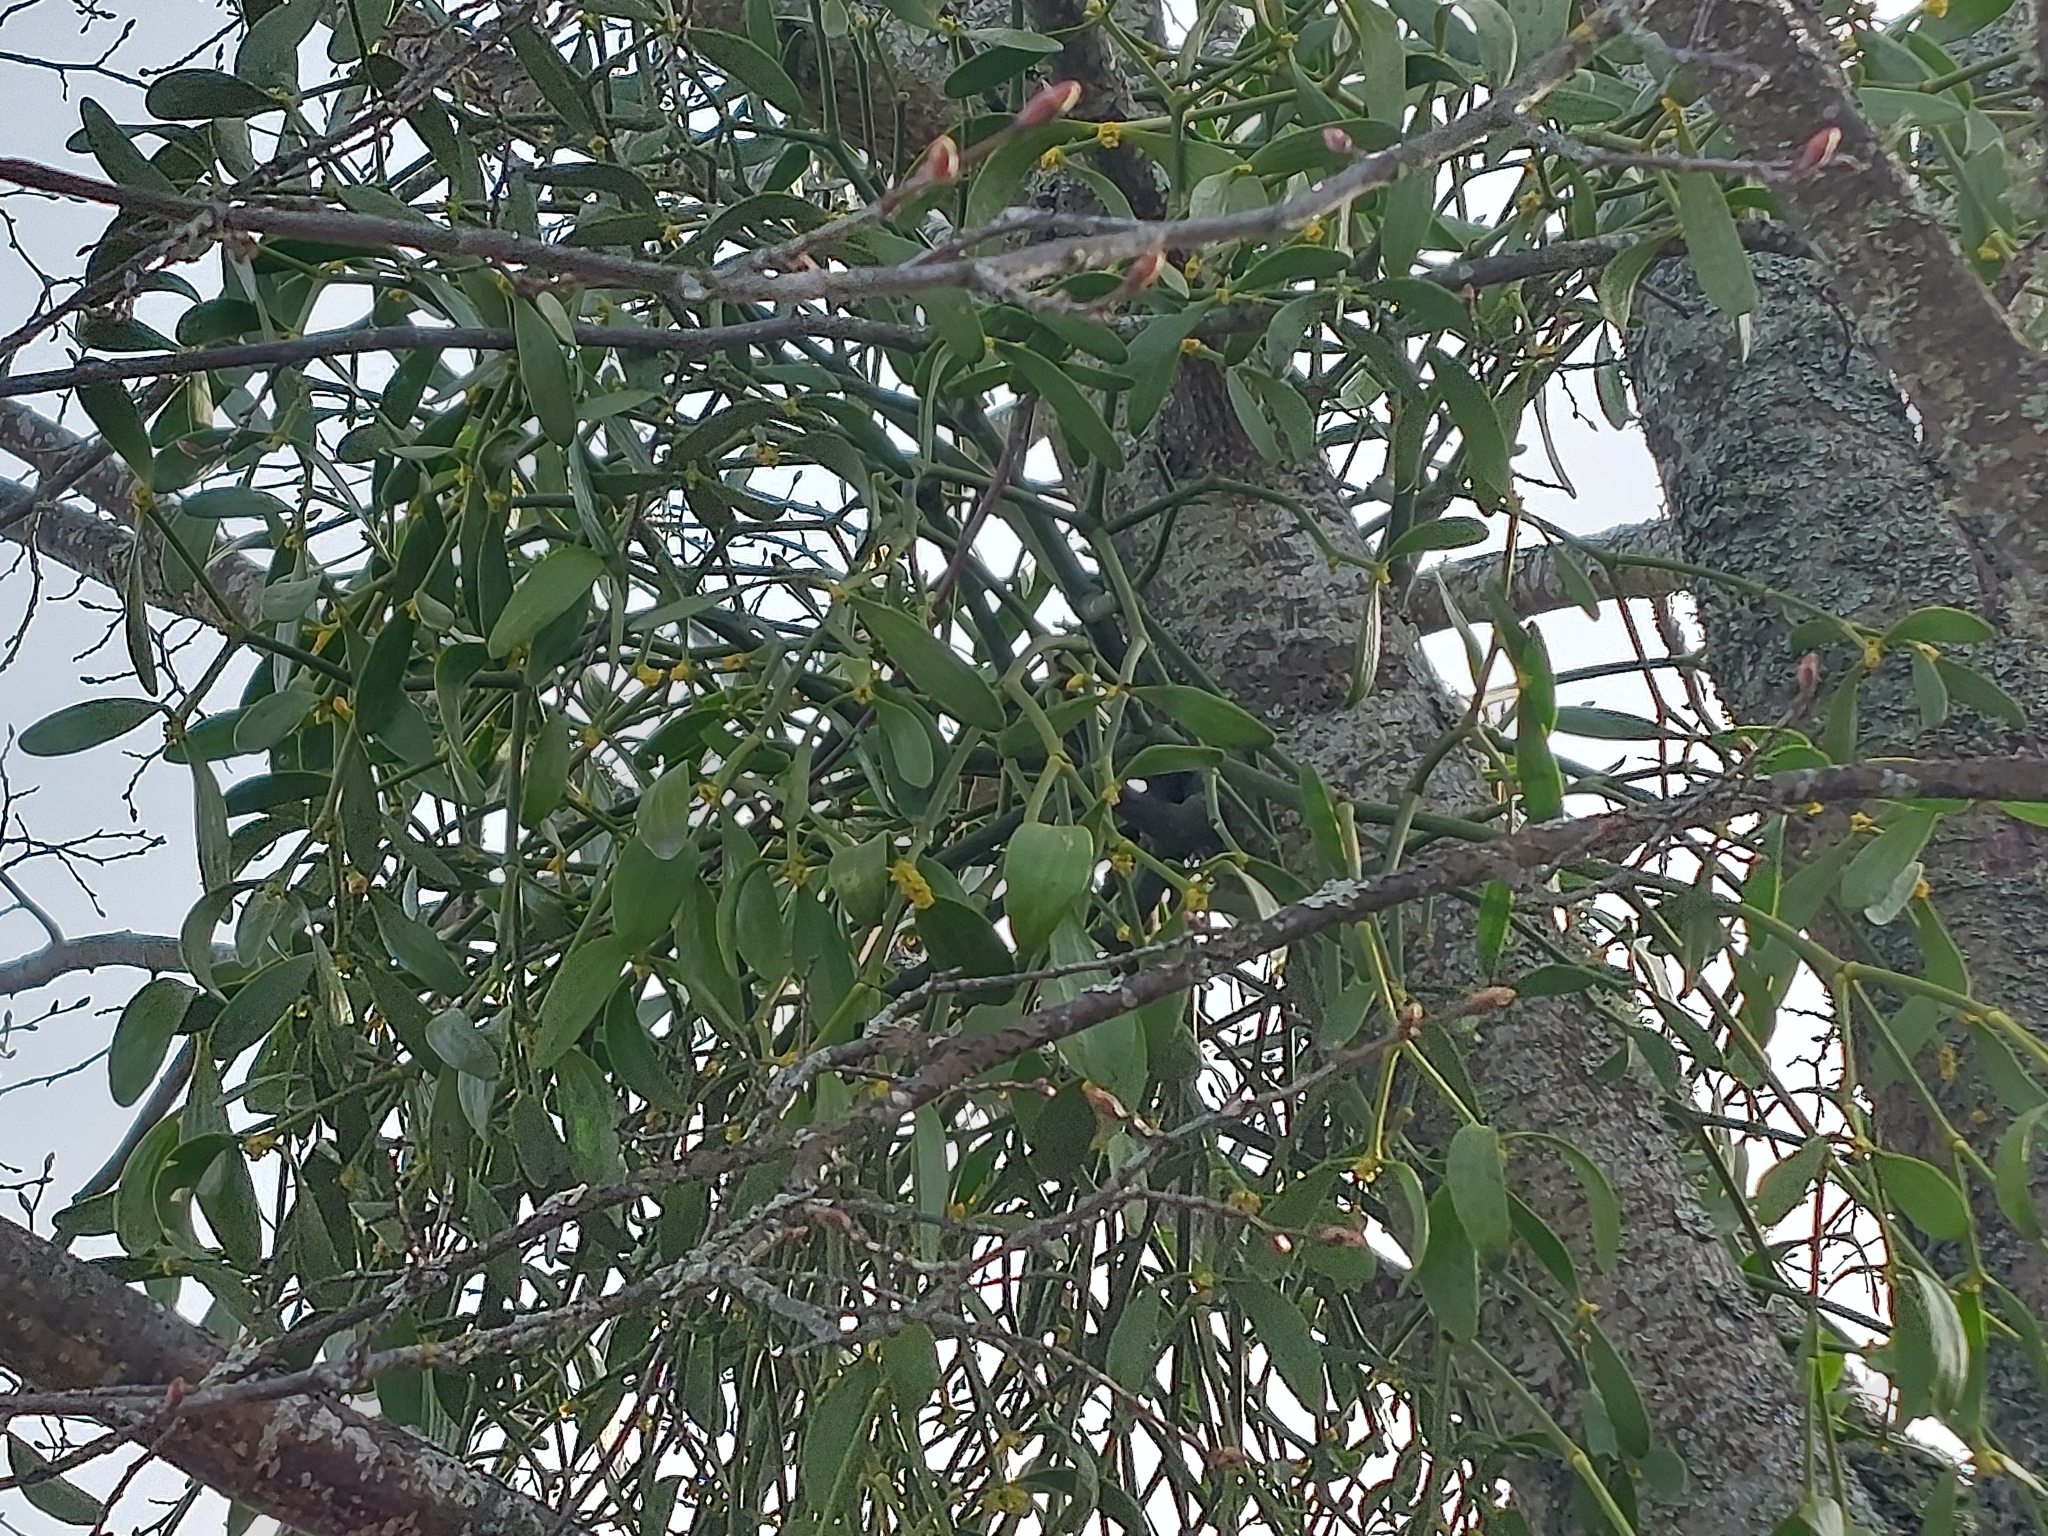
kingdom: Plantae
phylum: Tracheophyta
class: Magnoliopsida
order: Santalales
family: Viscaceae
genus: Viscum
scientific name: Viscum album
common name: Mistletoe
